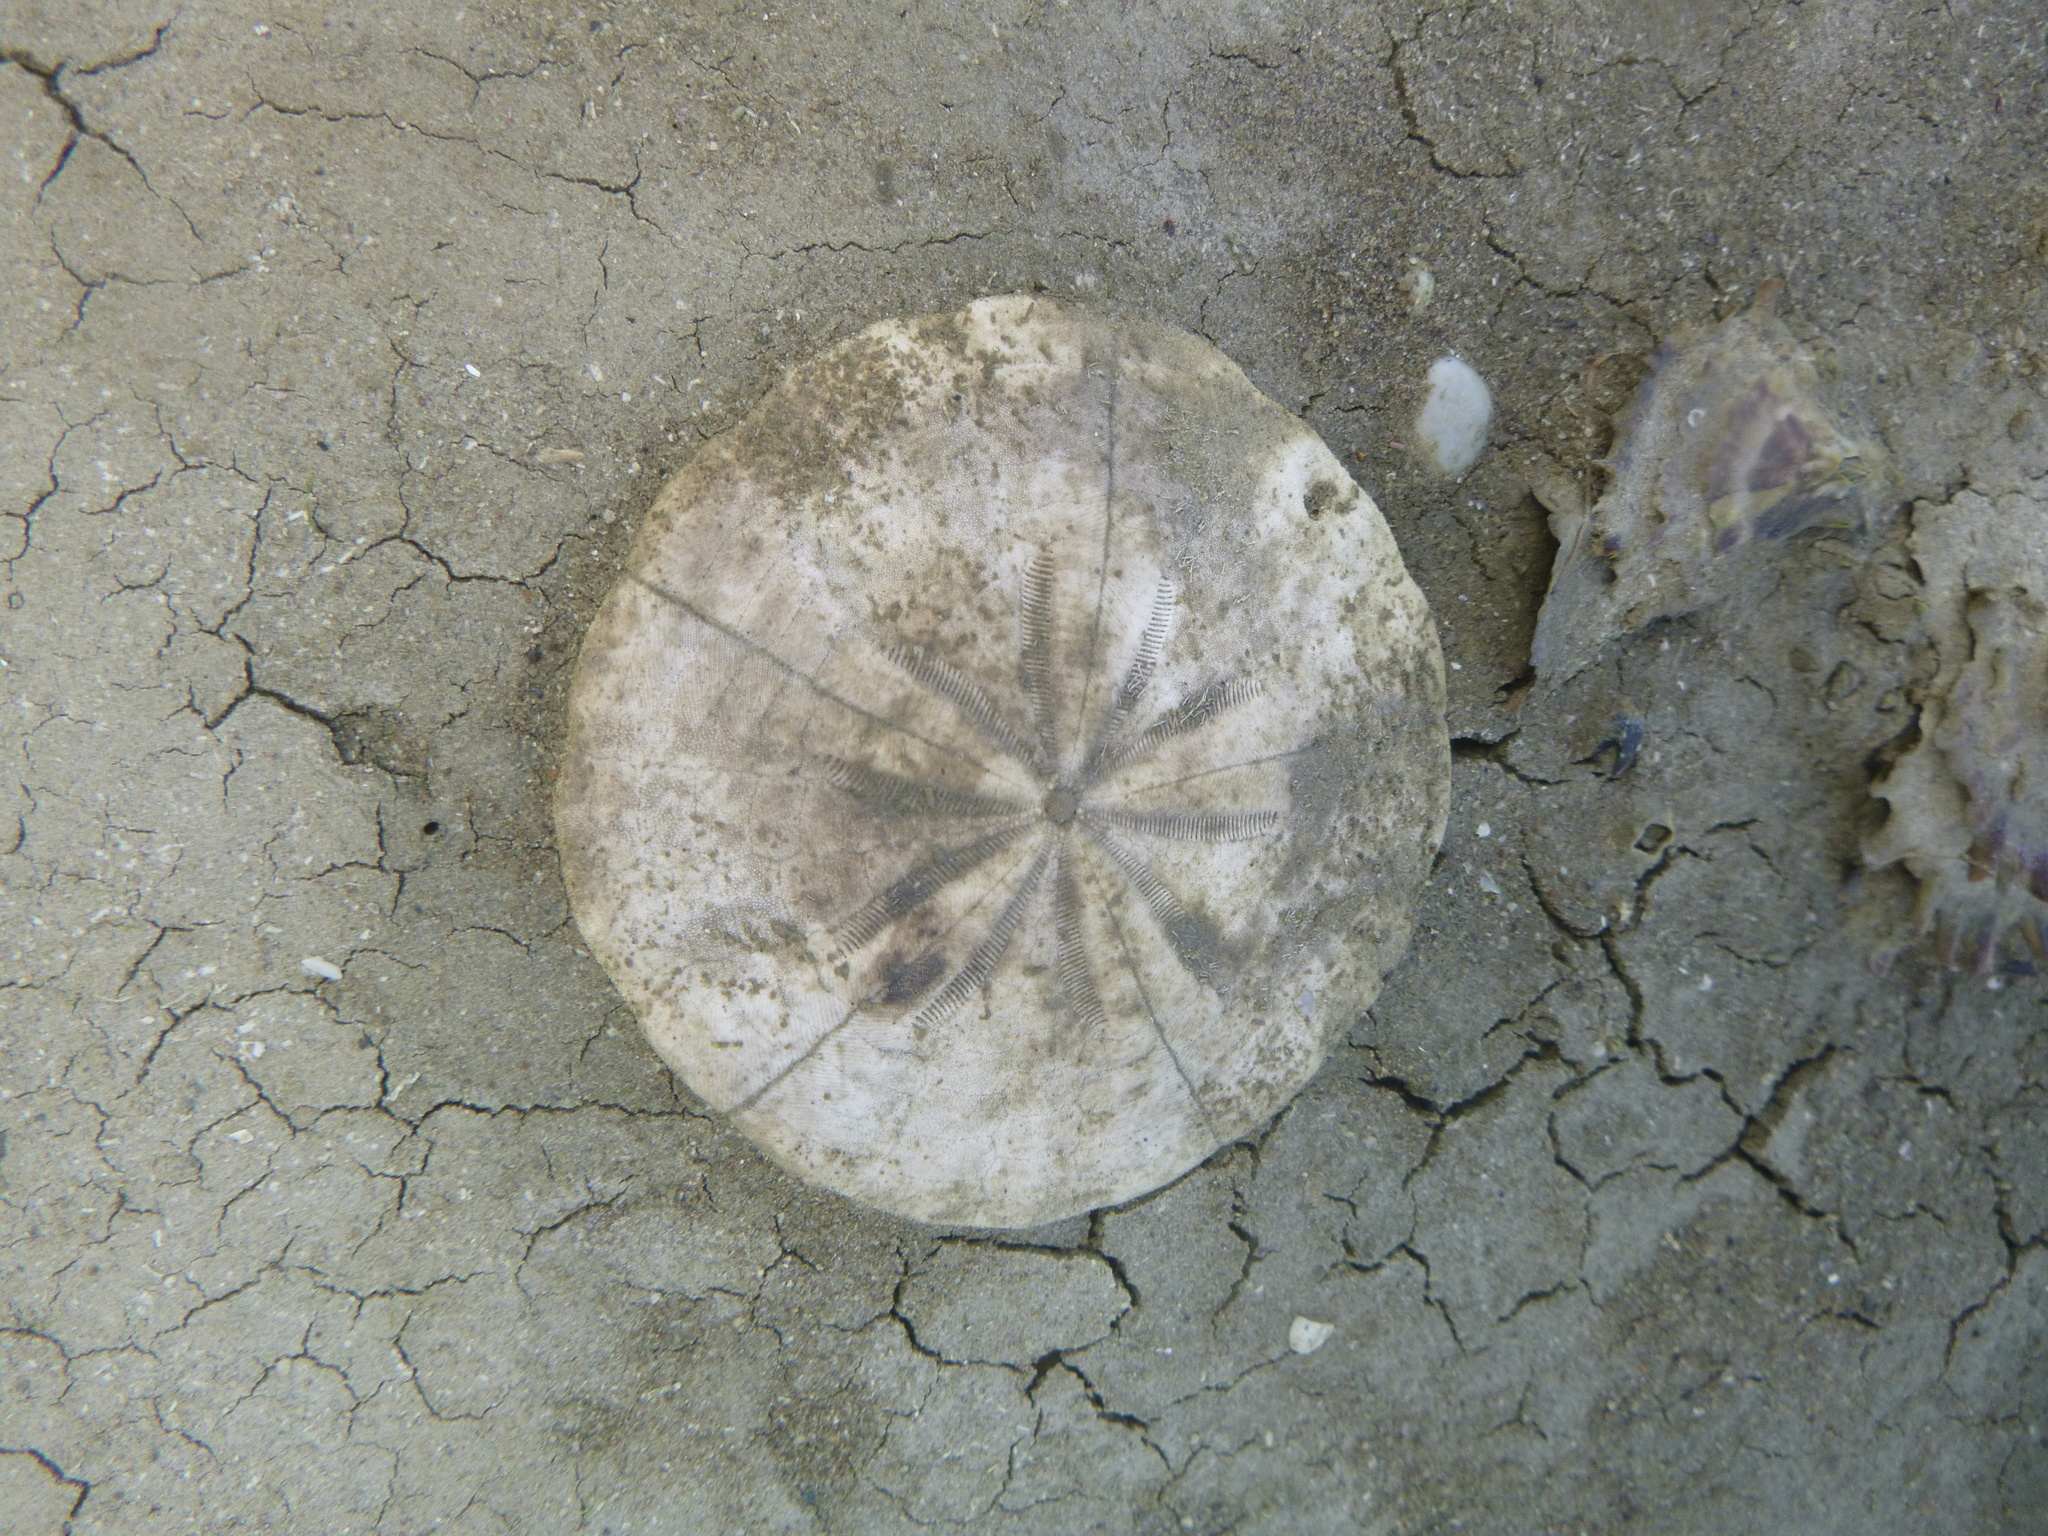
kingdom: Animalia
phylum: Echinodermata
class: Echinoidea
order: Clypeasteroida
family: Clypeasteridae
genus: Fellaster
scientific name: Fellaster zelandiae
